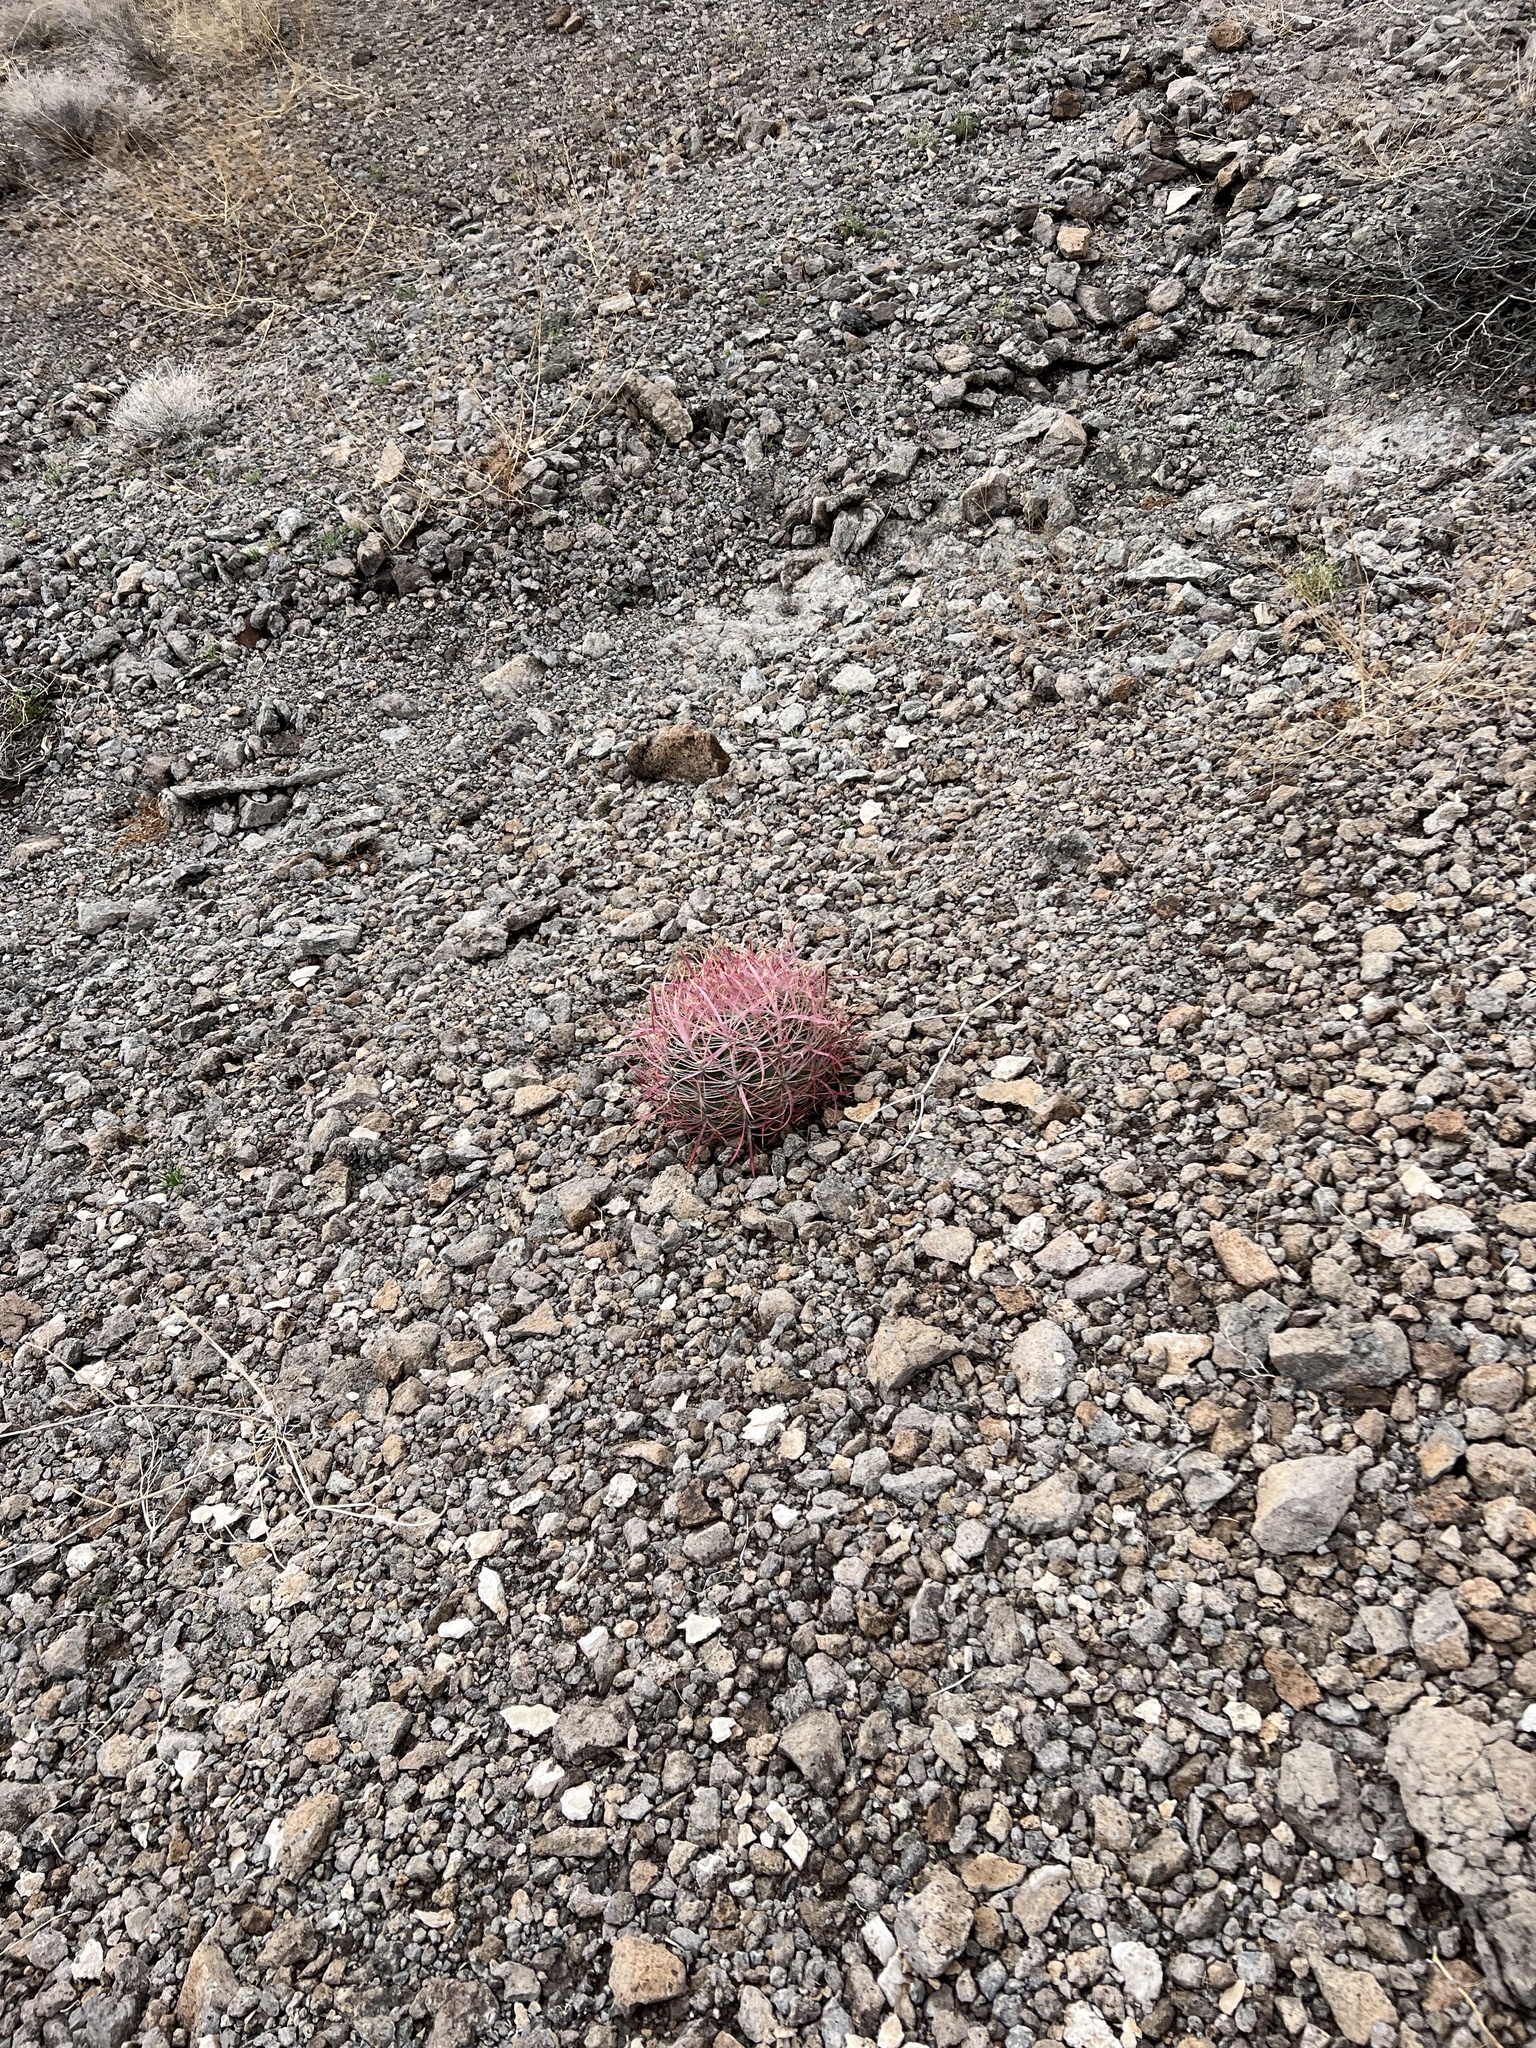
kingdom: Plantae
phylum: Tracheophyta
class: Magnoliopsida
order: Caryophyllales
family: Cactaceae
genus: Ferocactus
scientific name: Ferocactus cylindraceus
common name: California barrel cactus
